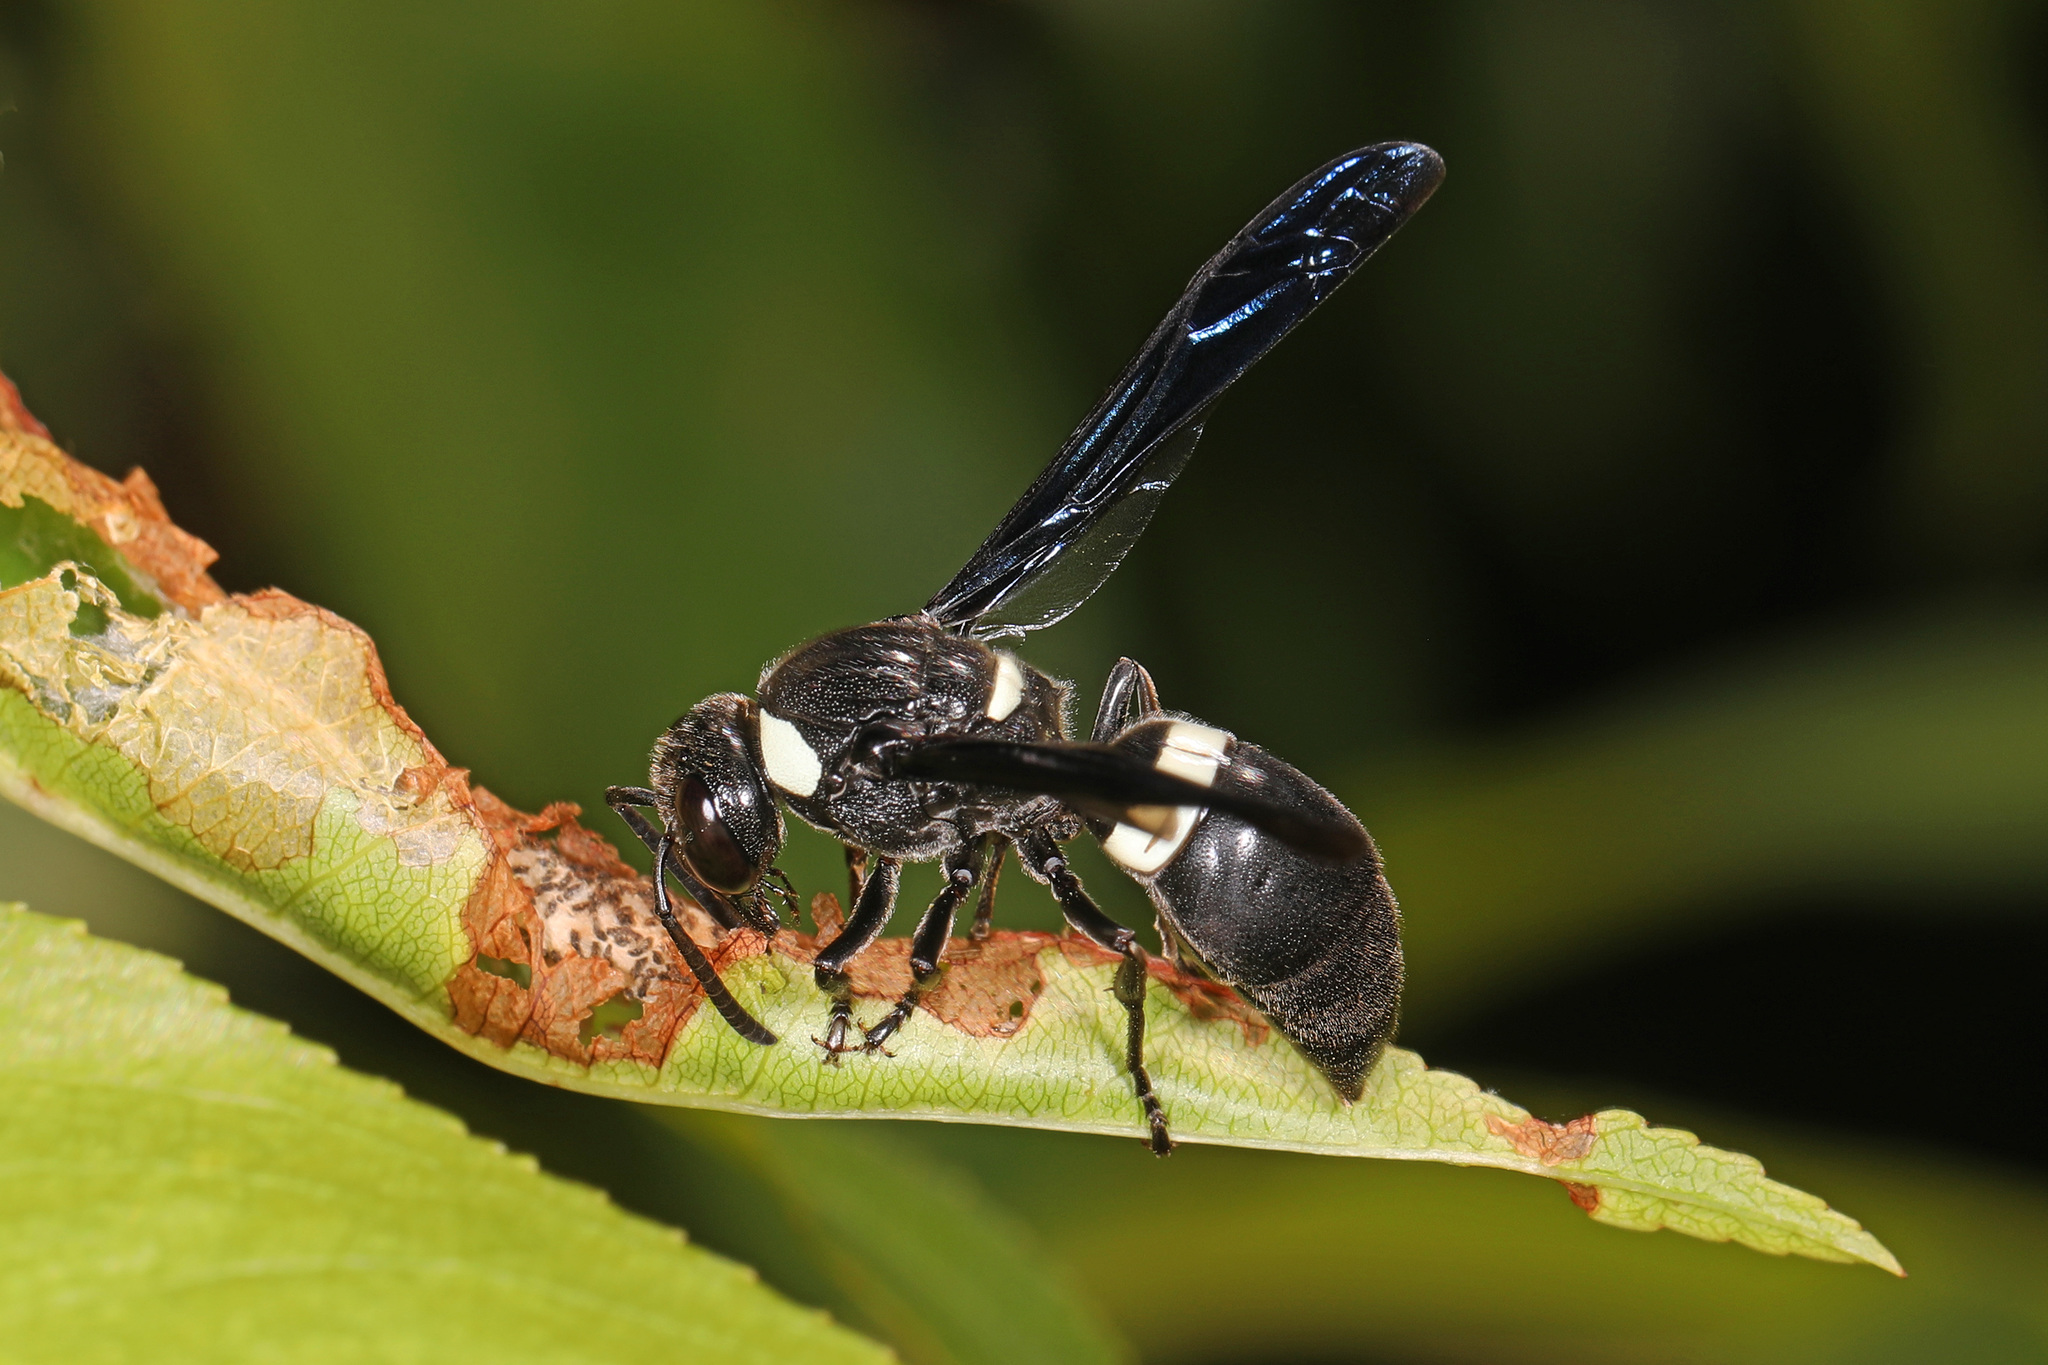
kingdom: Animalia
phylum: Arthropoda
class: Insecta
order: Hymenoptera
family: Eumenidae
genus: Monobia
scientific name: Monobia quadridens
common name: Four-toothed mason wasp
